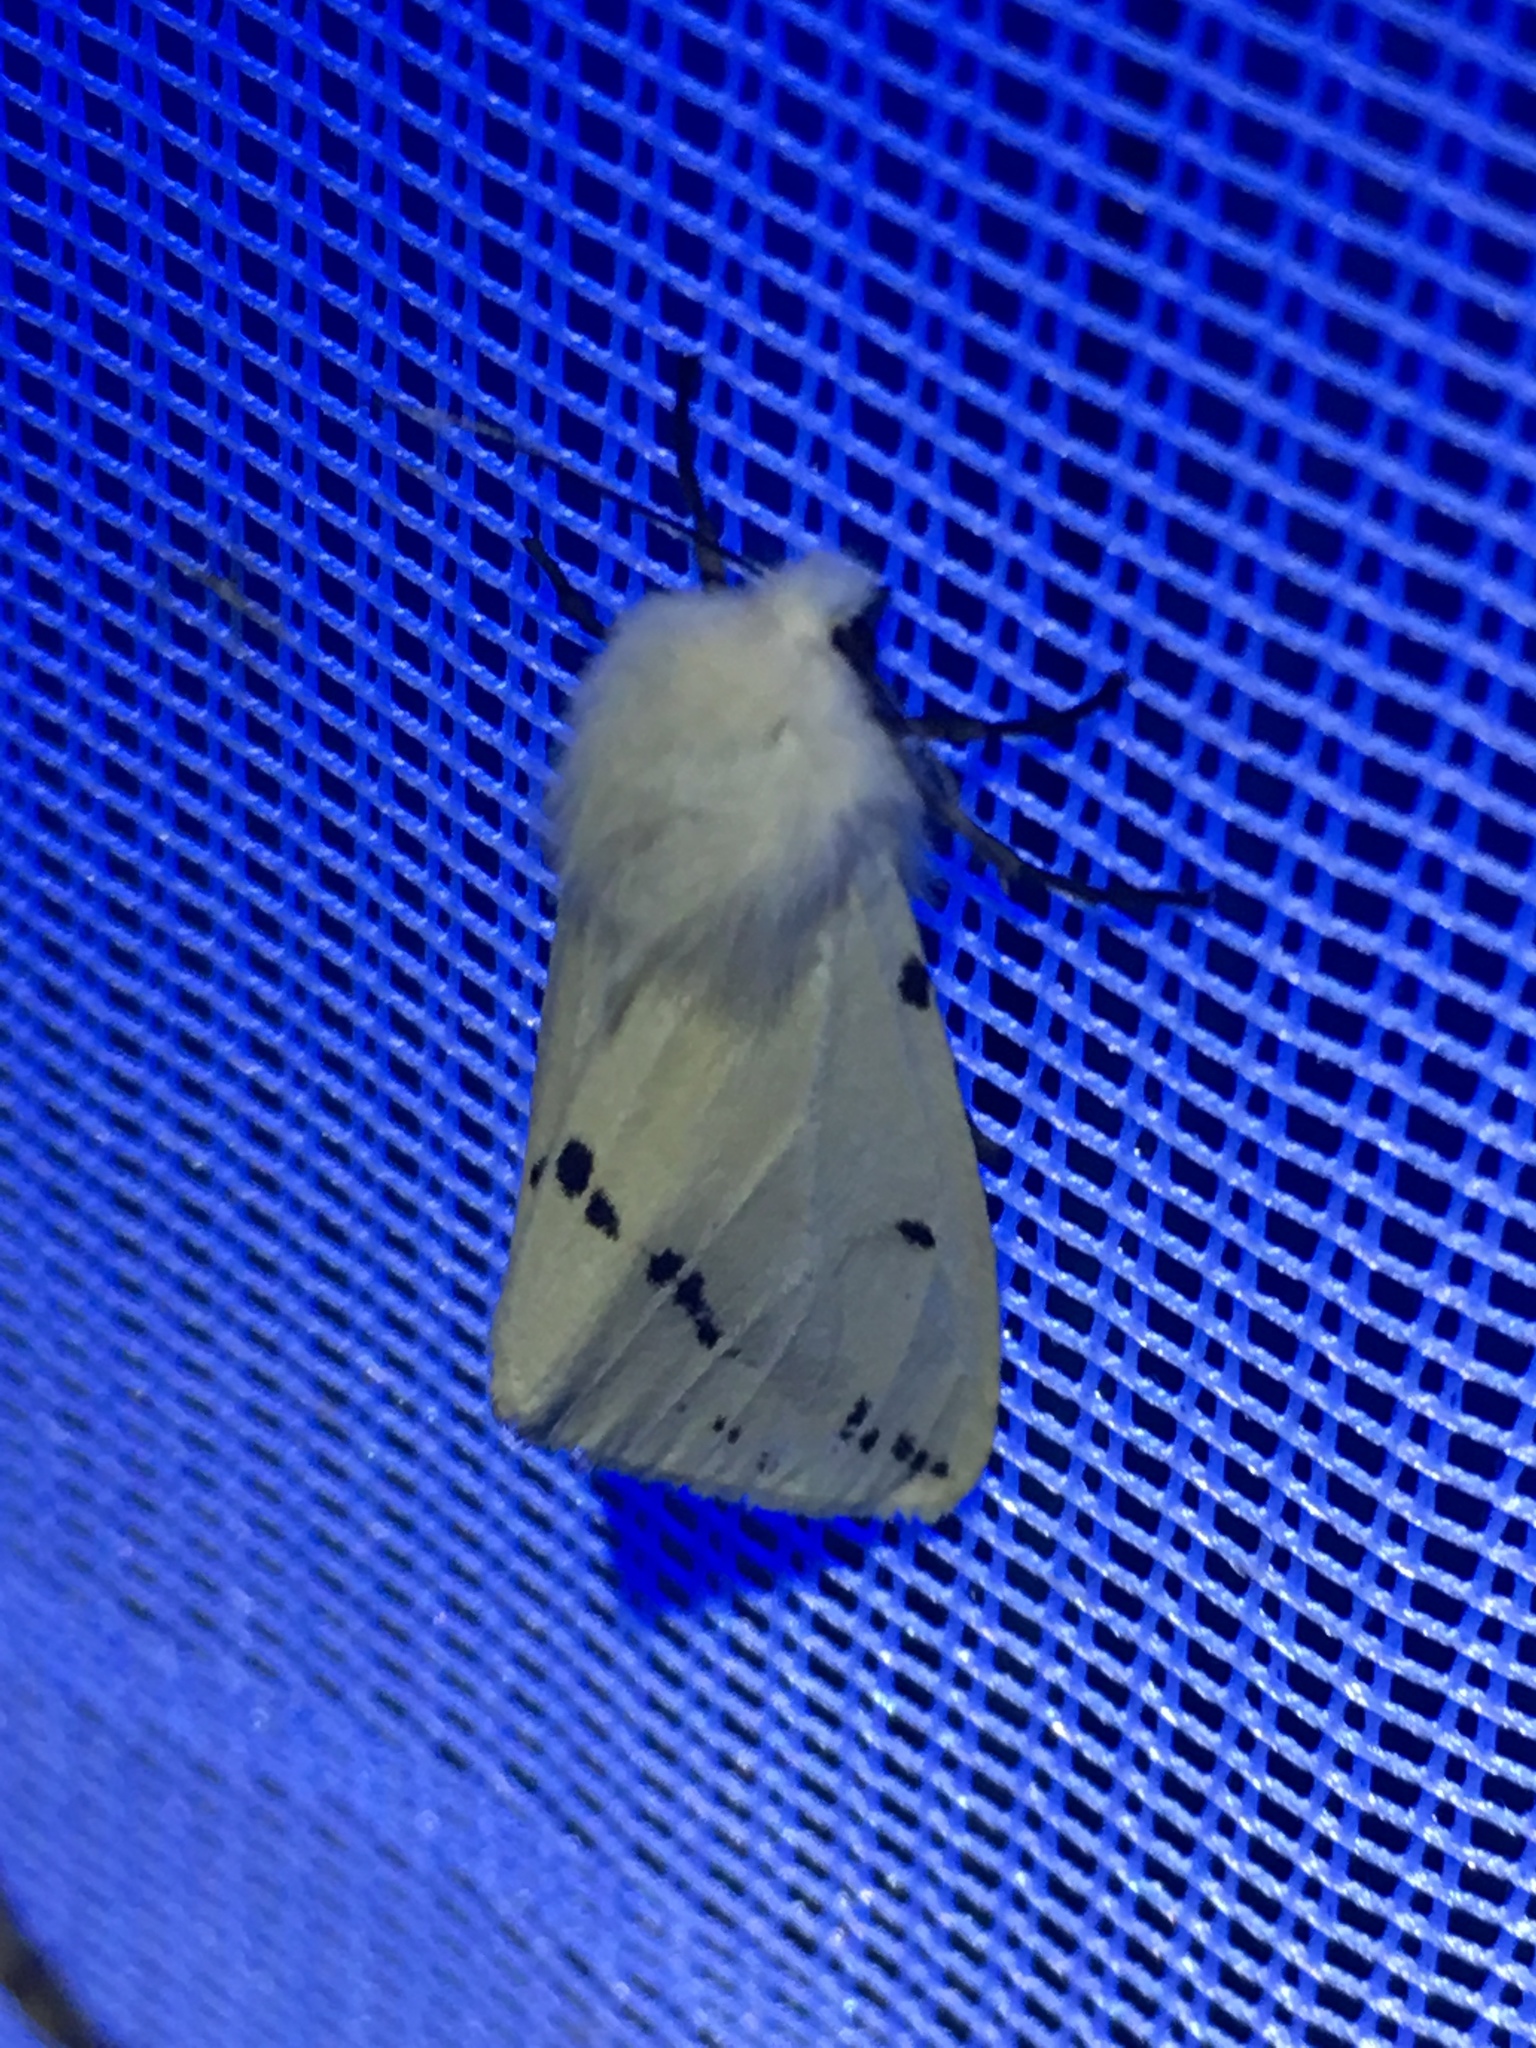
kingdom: Animalia
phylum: Arthropoda
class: Insecta
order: Lepidoptera
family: Erebidae
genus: Spilarctia
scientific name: Spilarctia lutea
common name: Buff ermine
